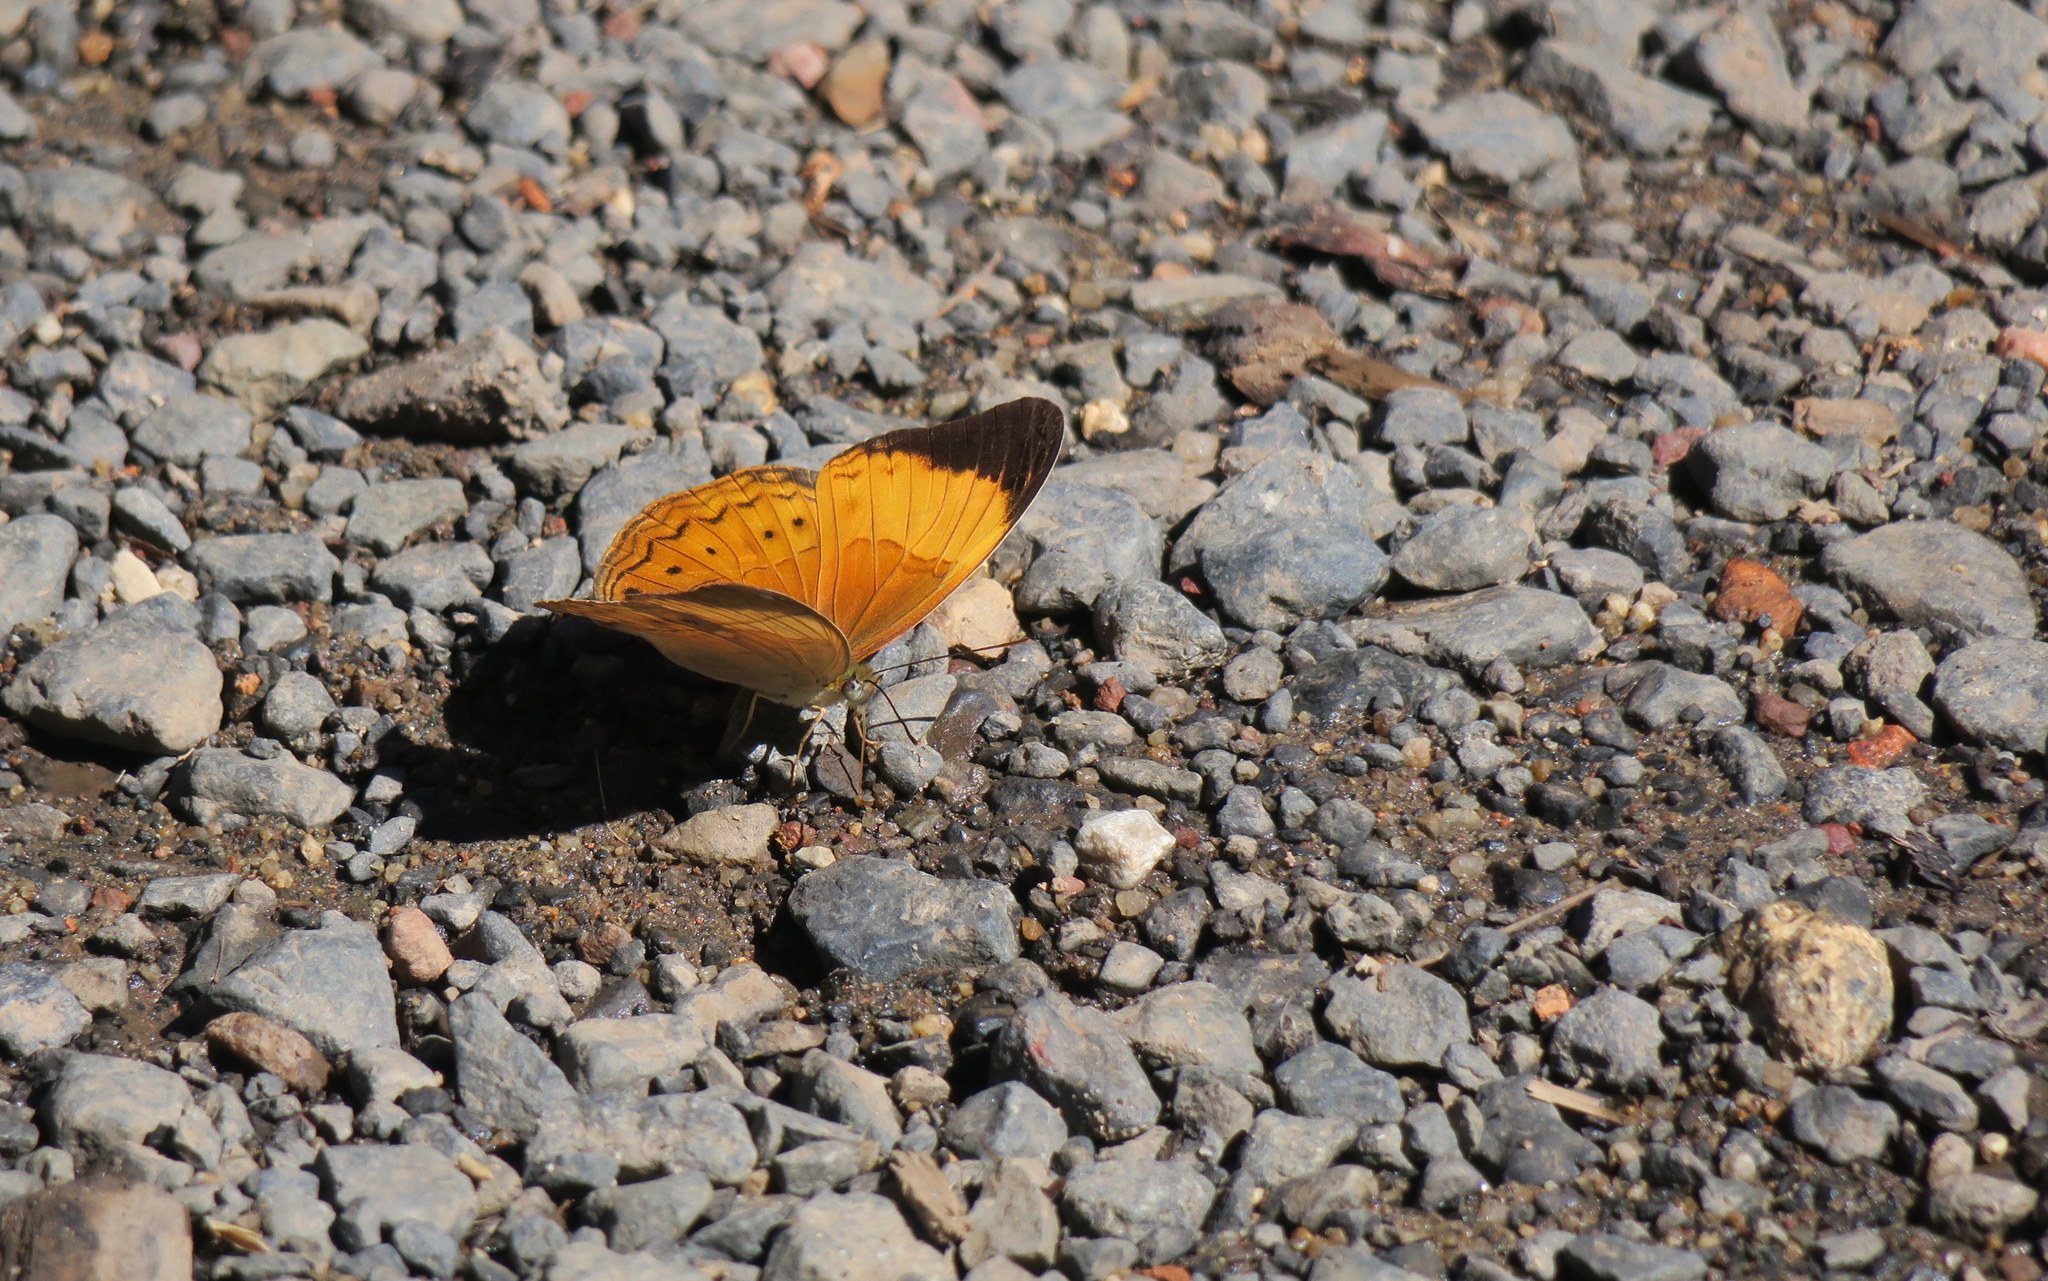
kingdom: Animalia
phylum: Arthropoda
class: Insecta
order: Lepidoptera
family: Nymphalidae
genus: Cirrochroa
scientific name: Cirrochroa orissa
